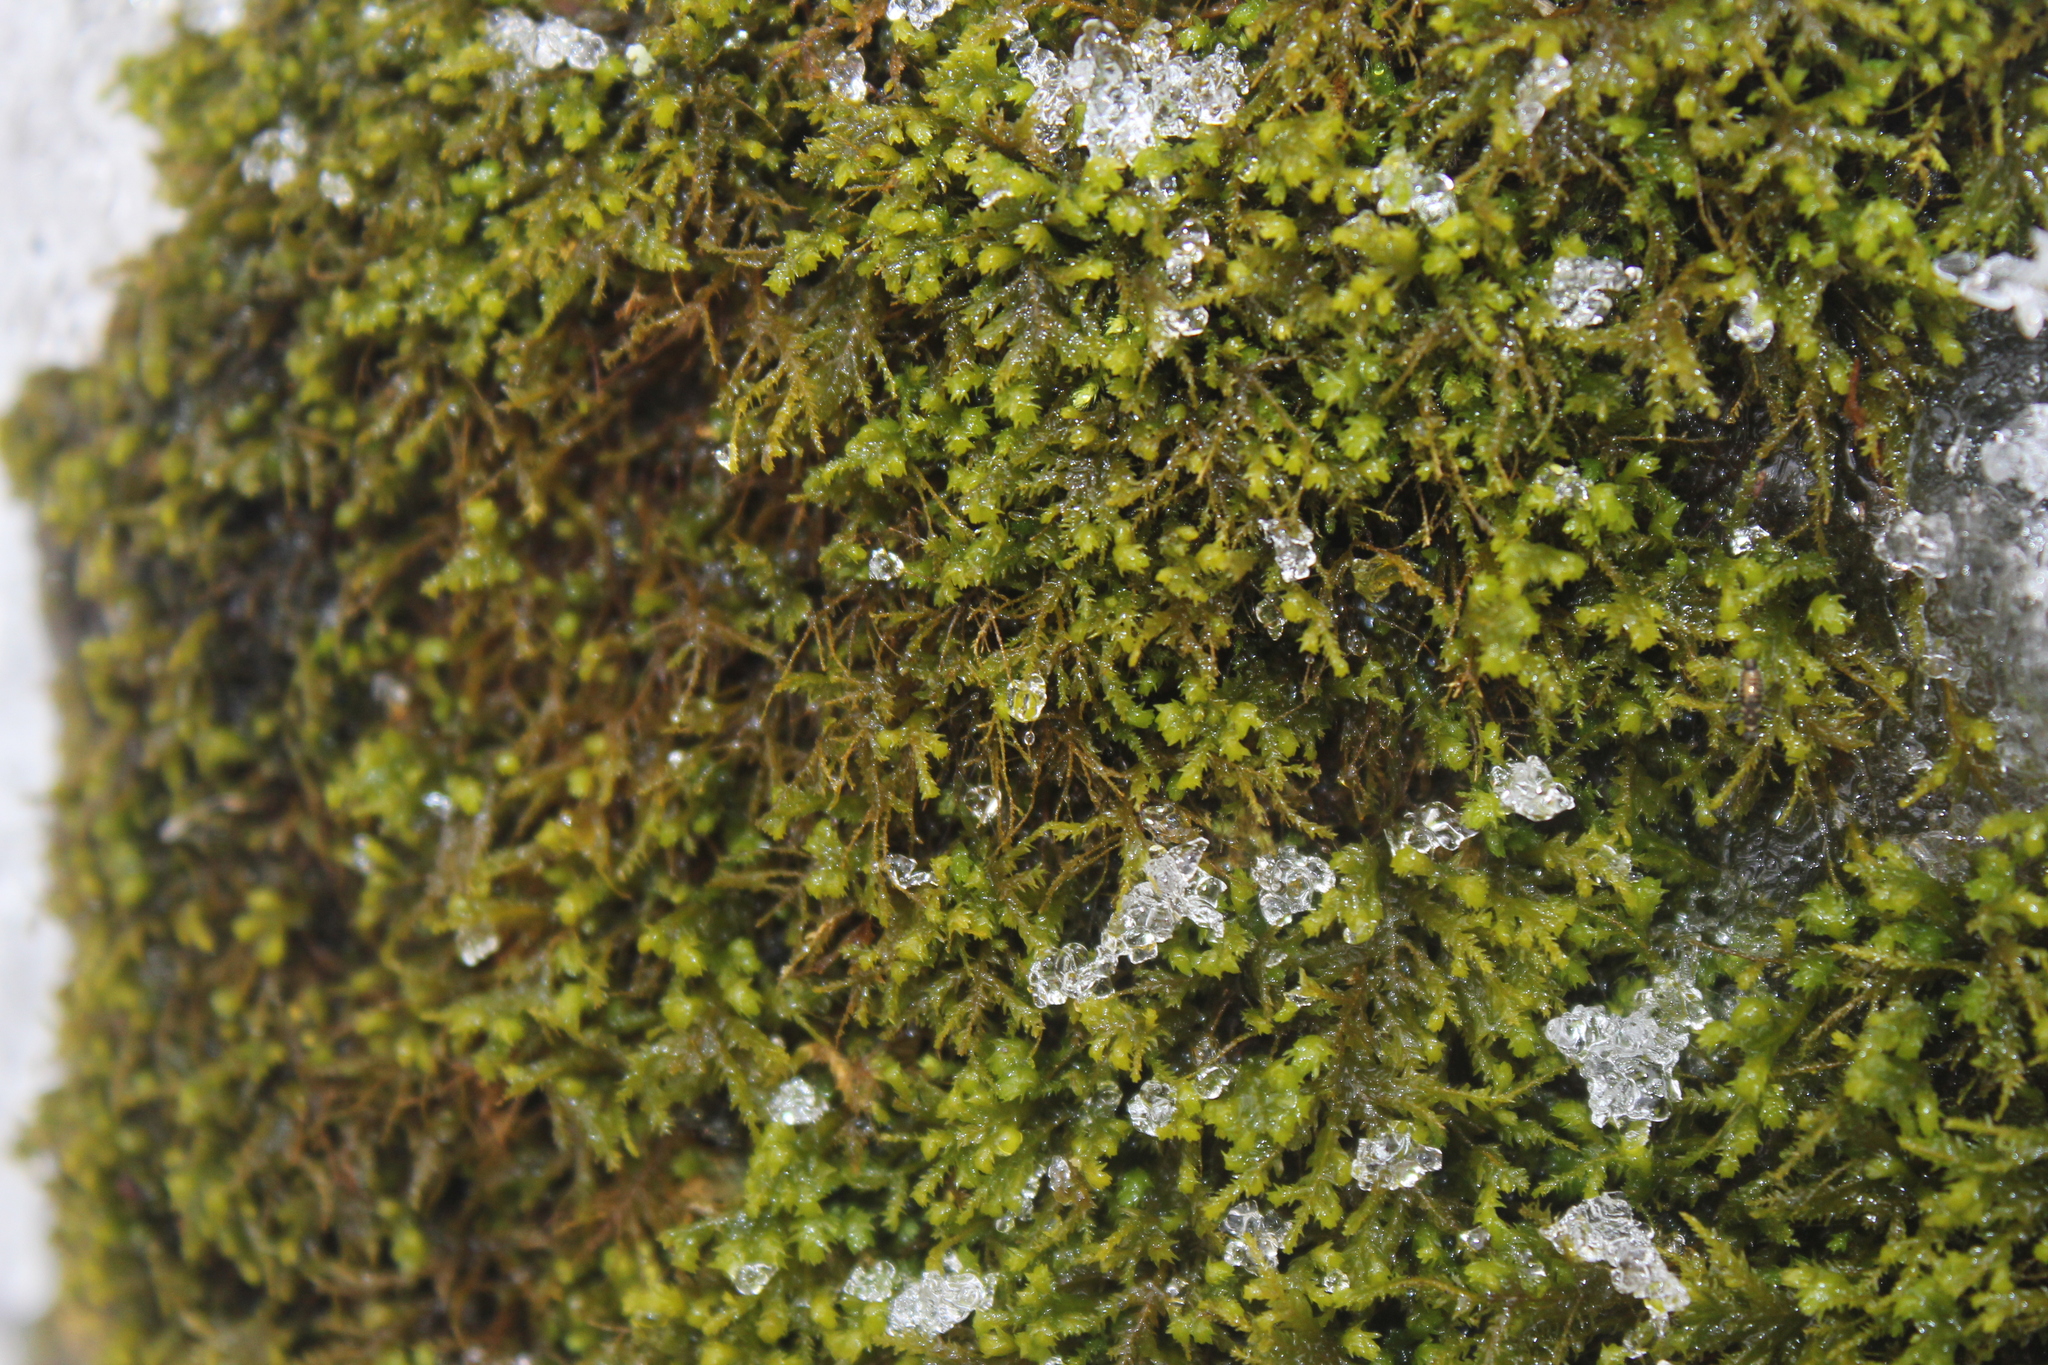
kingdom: Plantae
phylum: Bryophyta
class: Bryopsida
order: Hypnales
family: Neckeraceae
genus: Pseudanomodon
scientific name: Pseudanomodon attenuatus
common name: Tree-skirt moss
